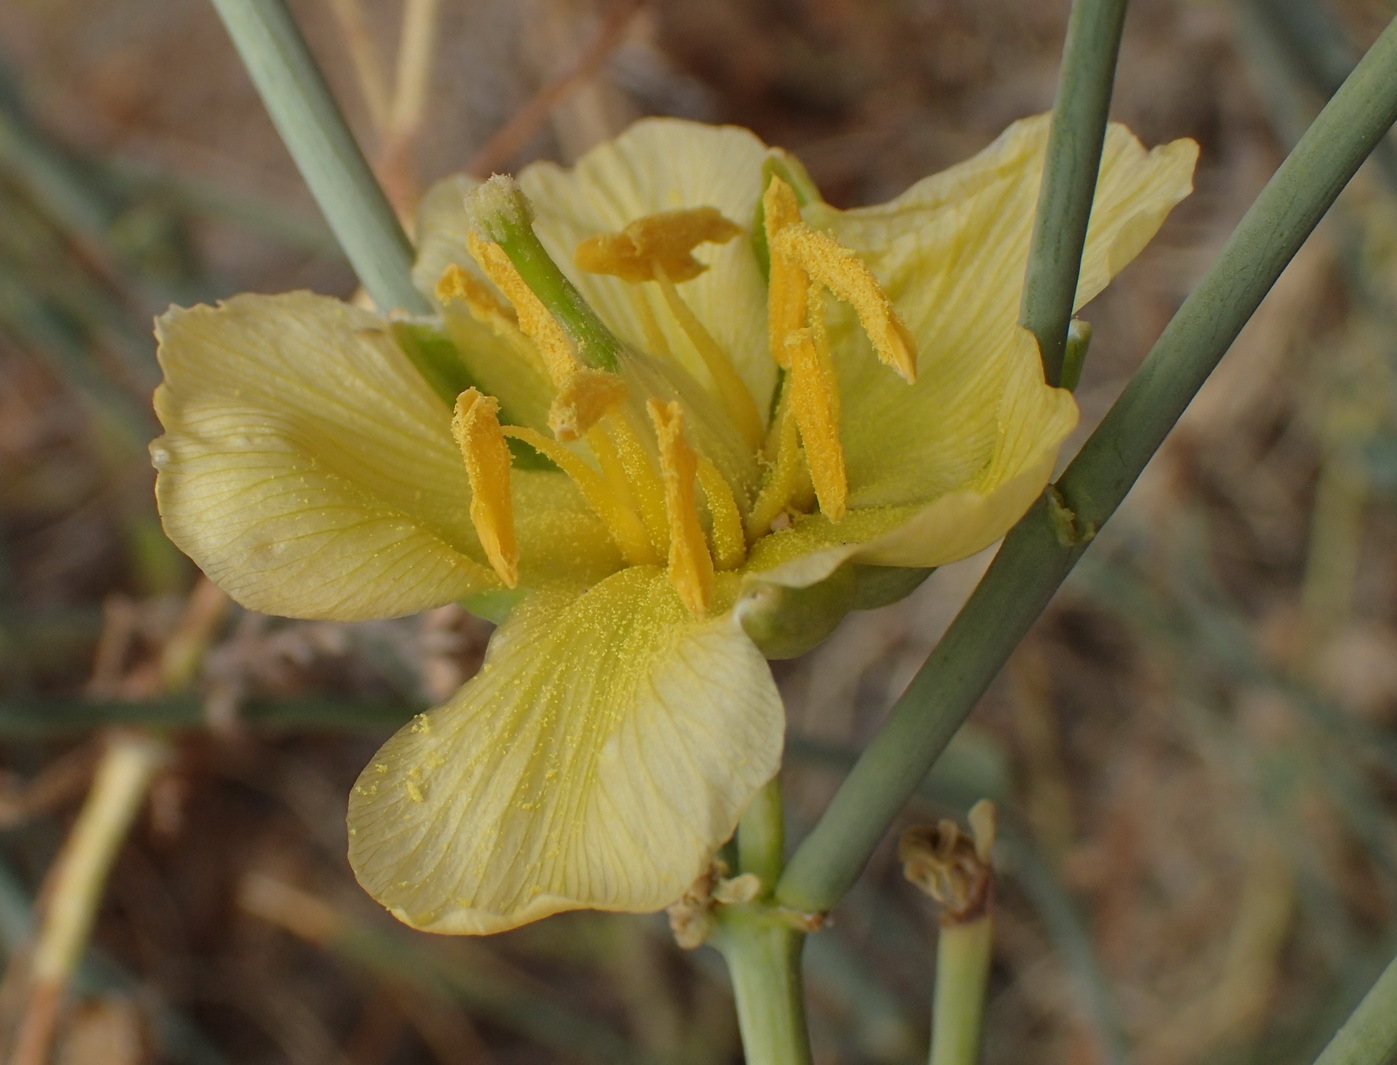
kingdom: Plantae
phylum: Tracheophyta
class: Magnoliopsida
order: Zygophyllales
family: Zygophyllaceae
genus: Sisyndite
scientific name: Sisyndite spartea
